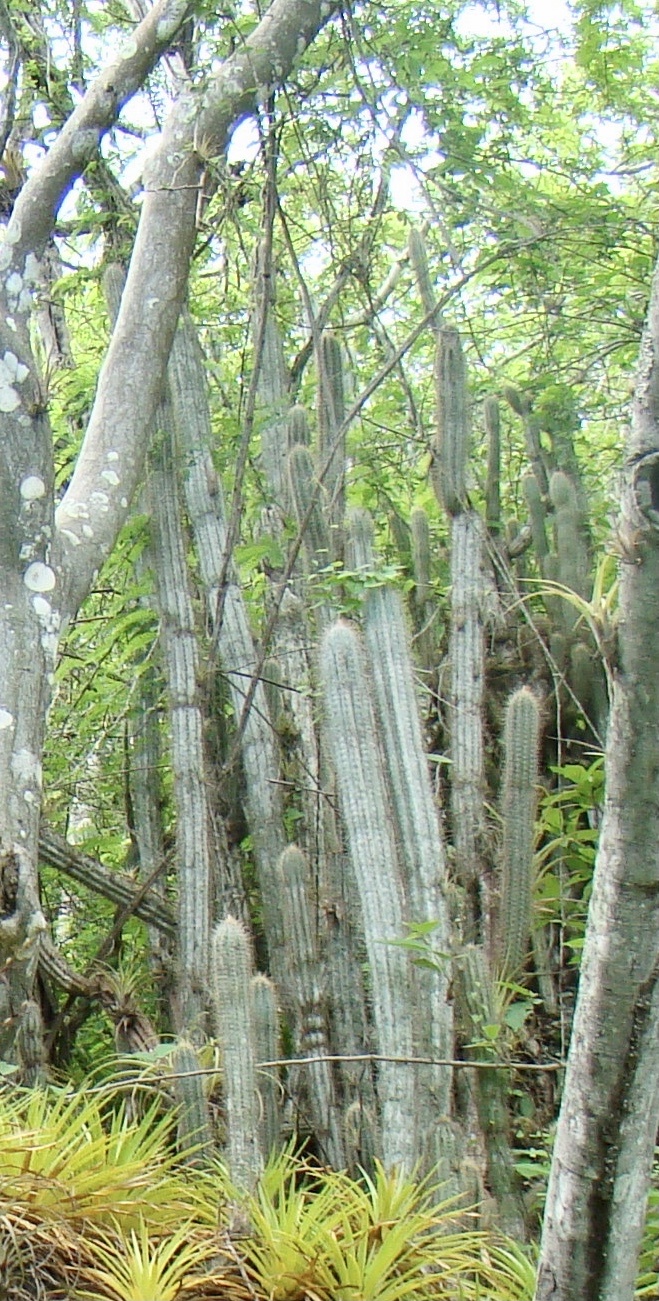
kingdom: Plantae
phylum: Tracheophyta
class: Magnoliopsida
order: Caryophyllales
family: Cactaceae
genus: Pilosocereus
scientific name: Pilosocereus lanuginosus
